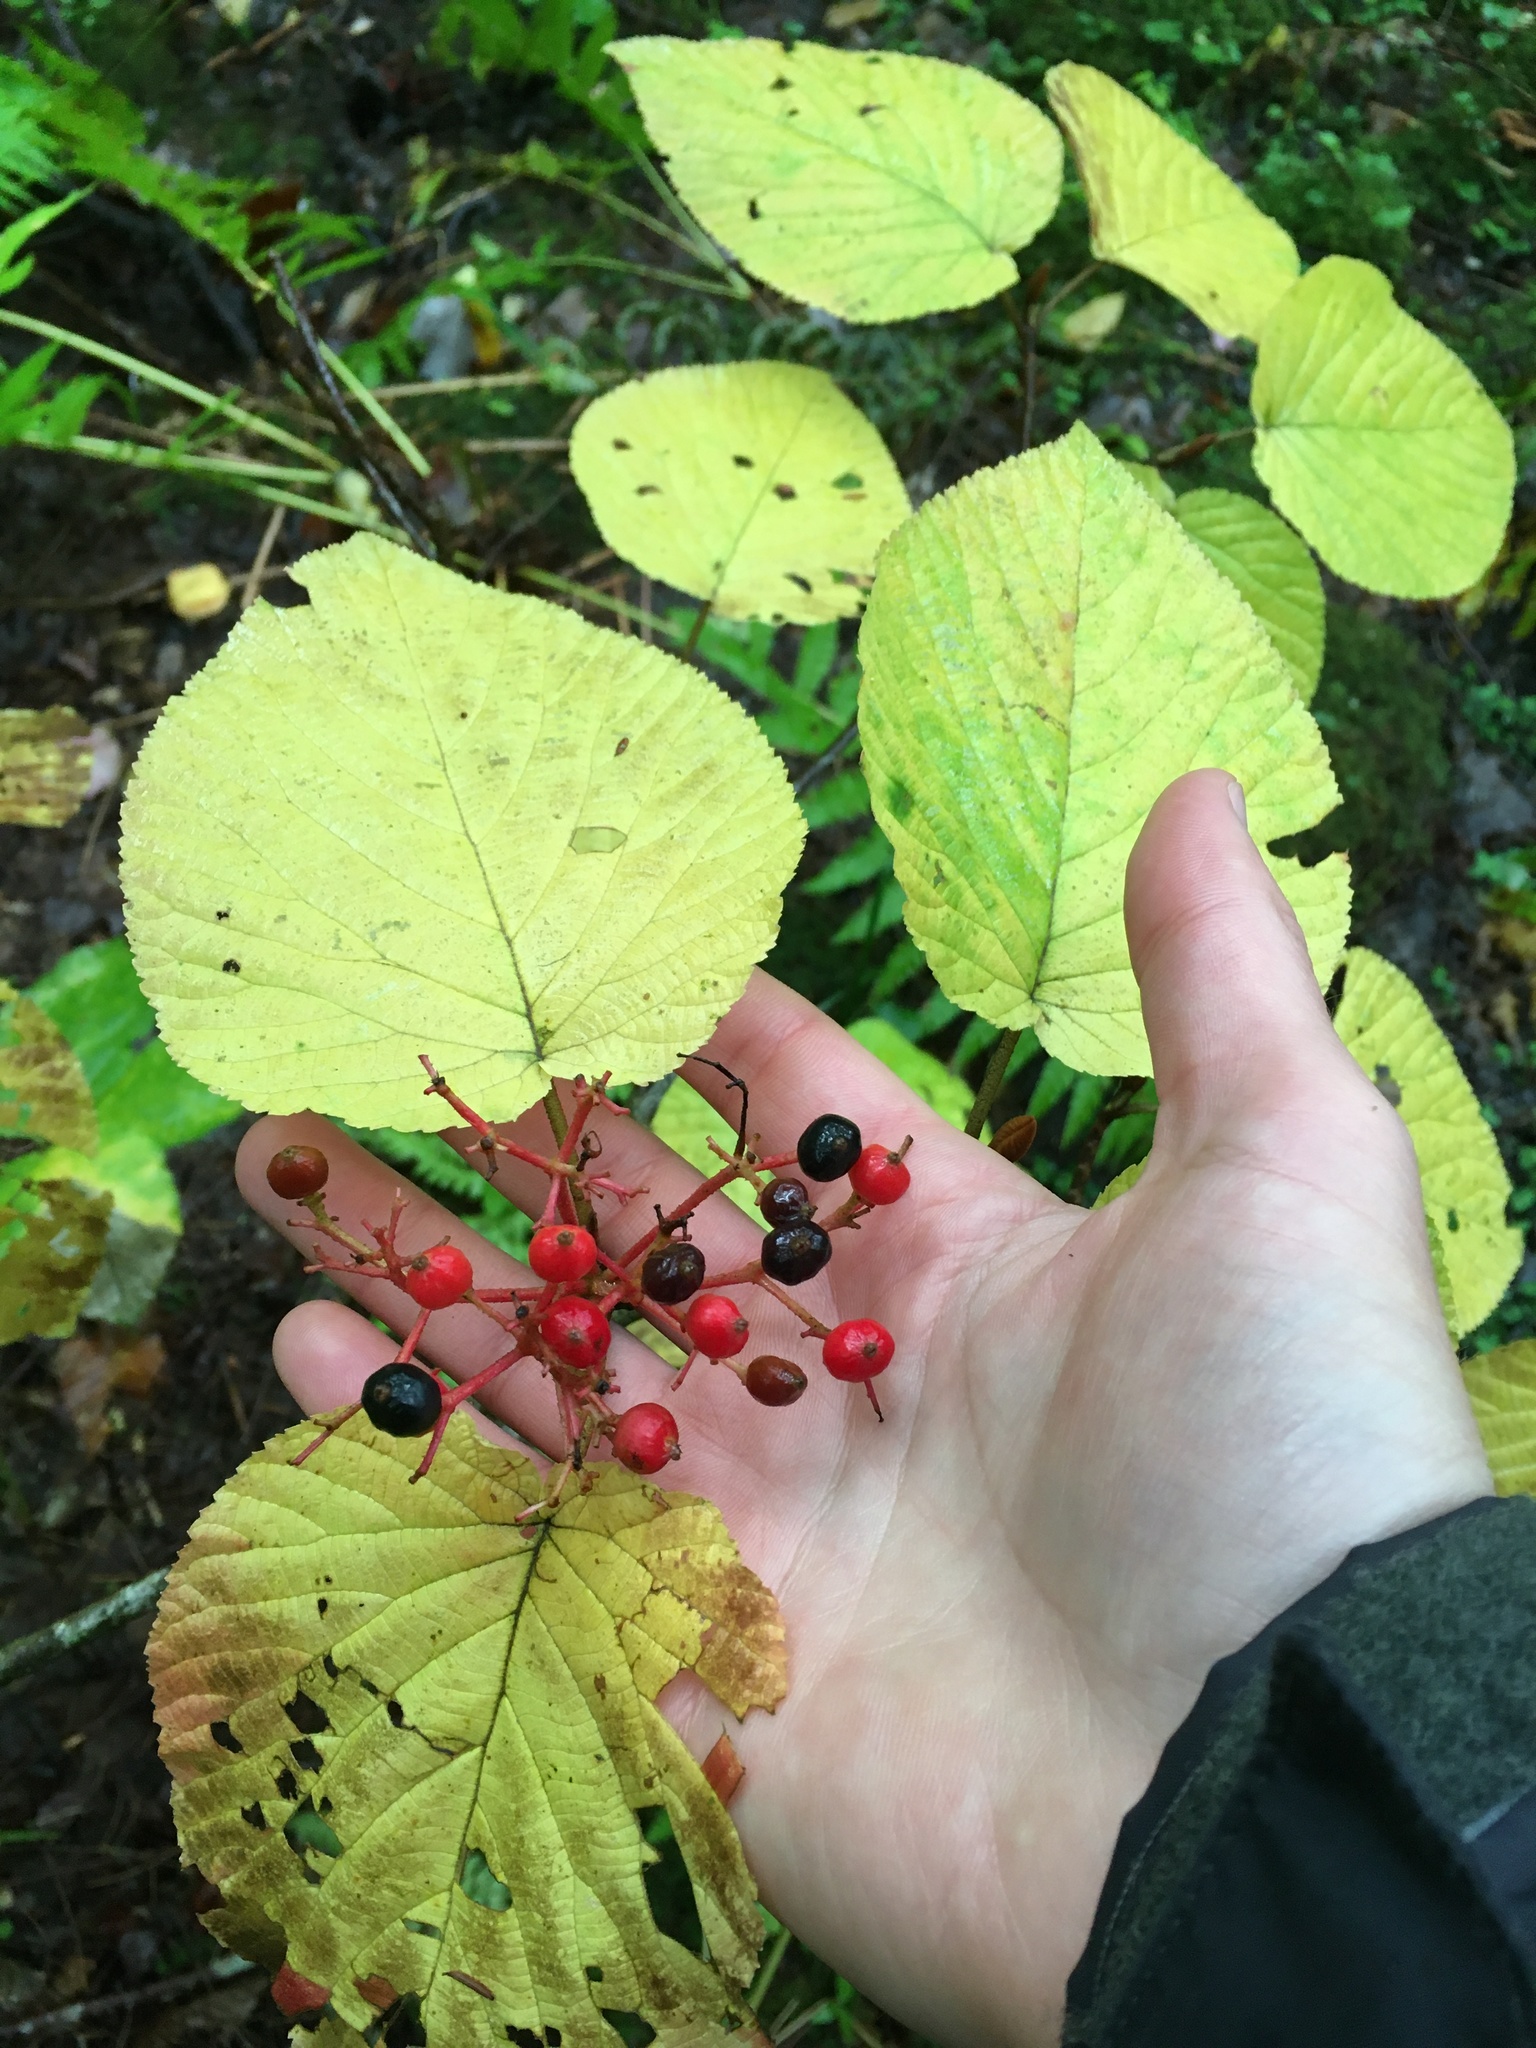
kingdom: Plantae
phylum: Tracheophyta
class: Magnoliopsida
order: Dipsacales
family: Viburnaceae
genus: Viburnum
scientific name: Viburnum lantanoides
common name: Hobblebush
